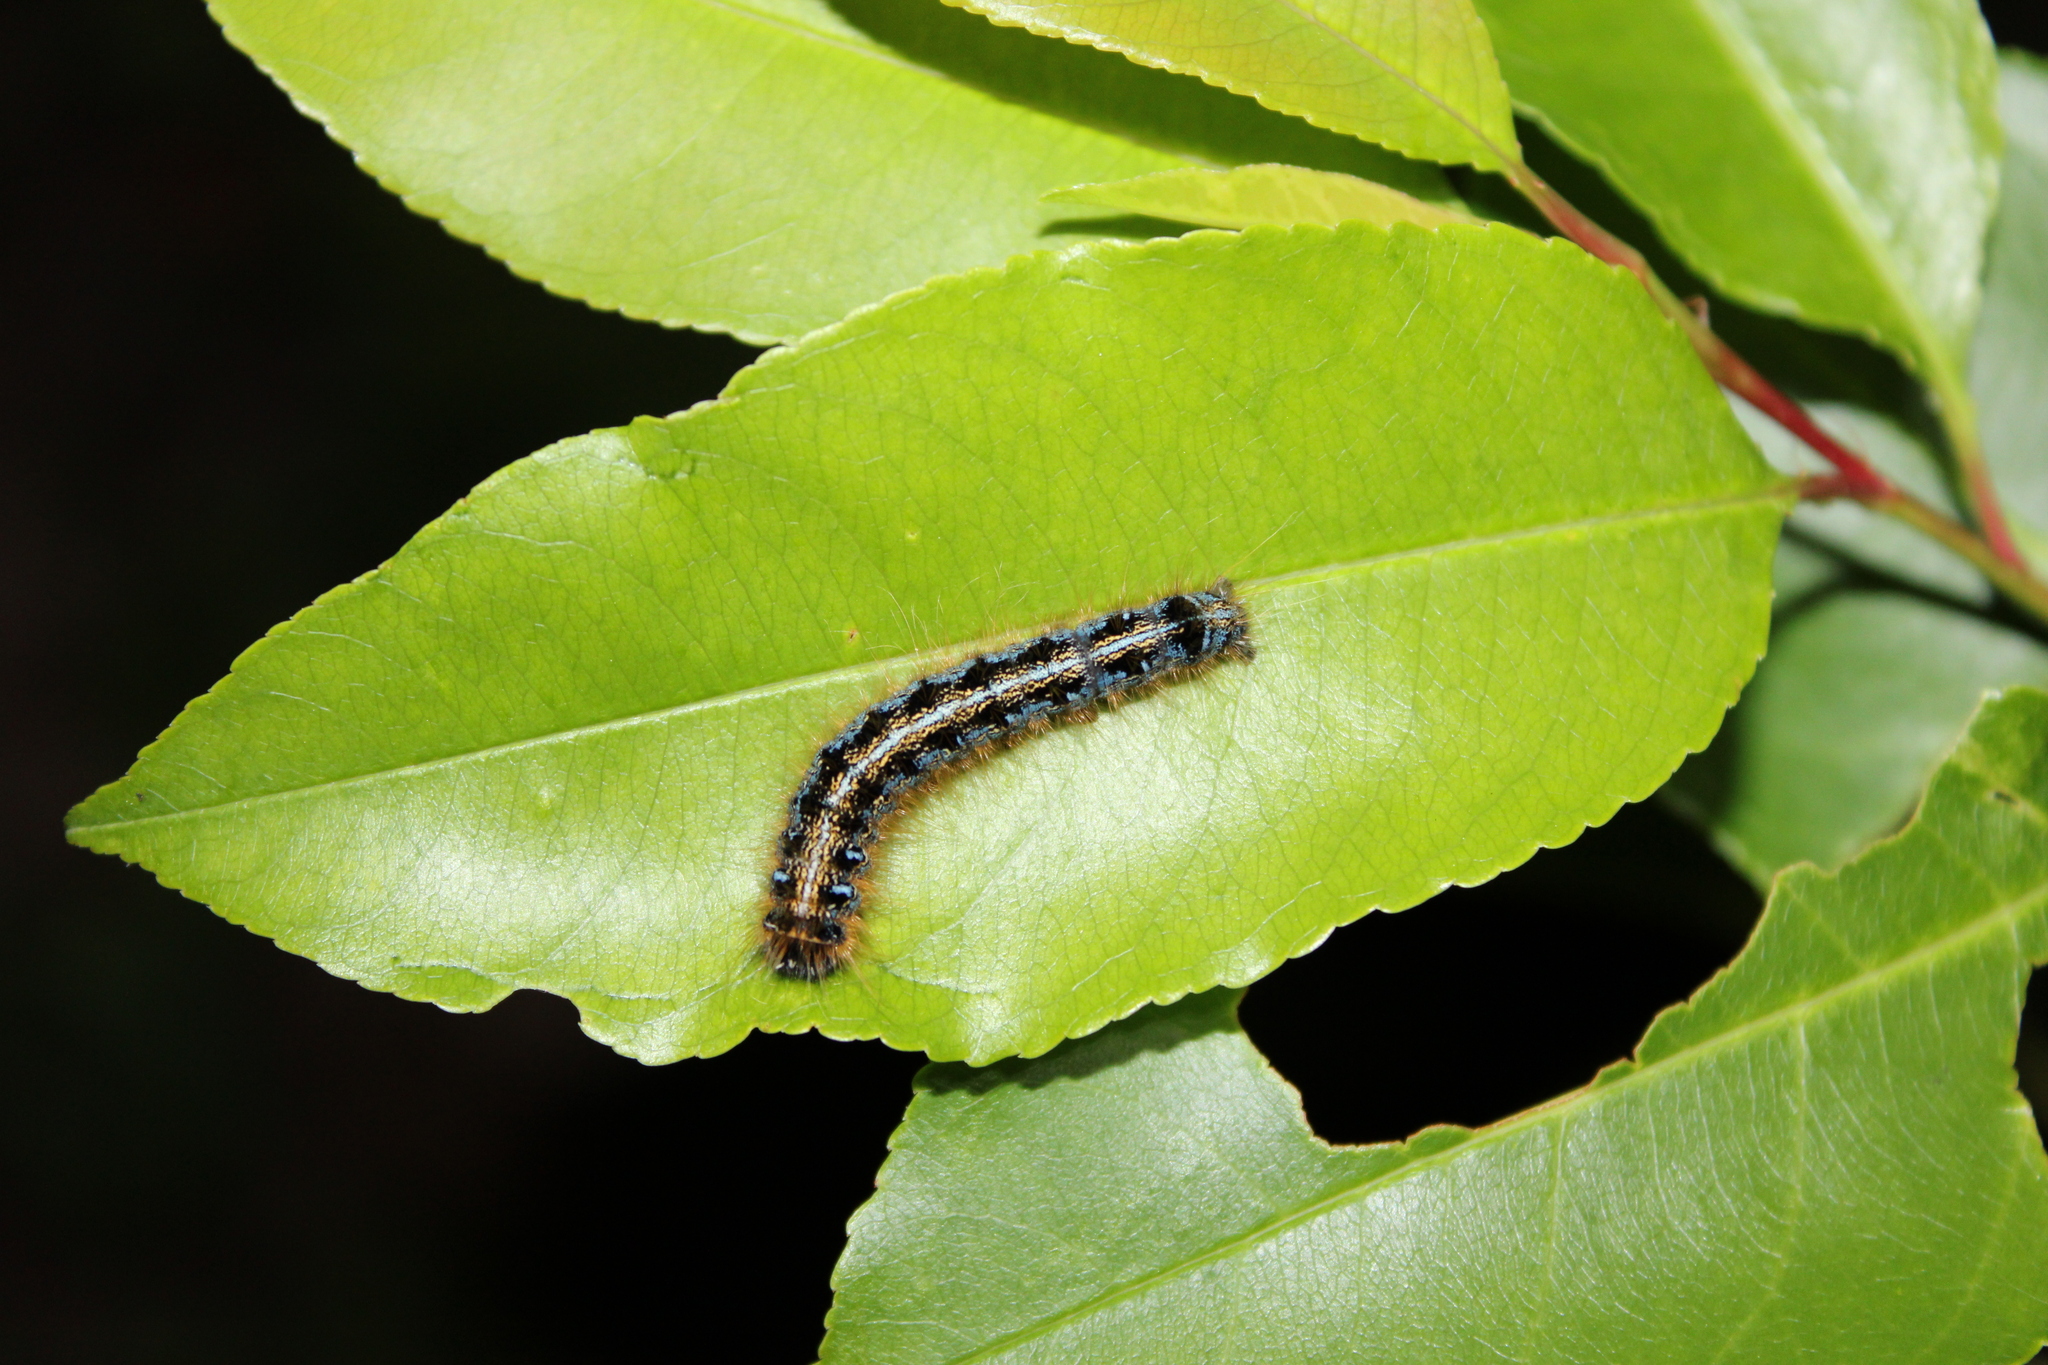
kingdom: Animalia
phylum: Arthropoda
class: Insecta
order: Lepidoptera
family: Lasiocampidae
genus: Malacosoma
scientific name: Malacosoma americana
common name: Eastern tent caterpillar moth
